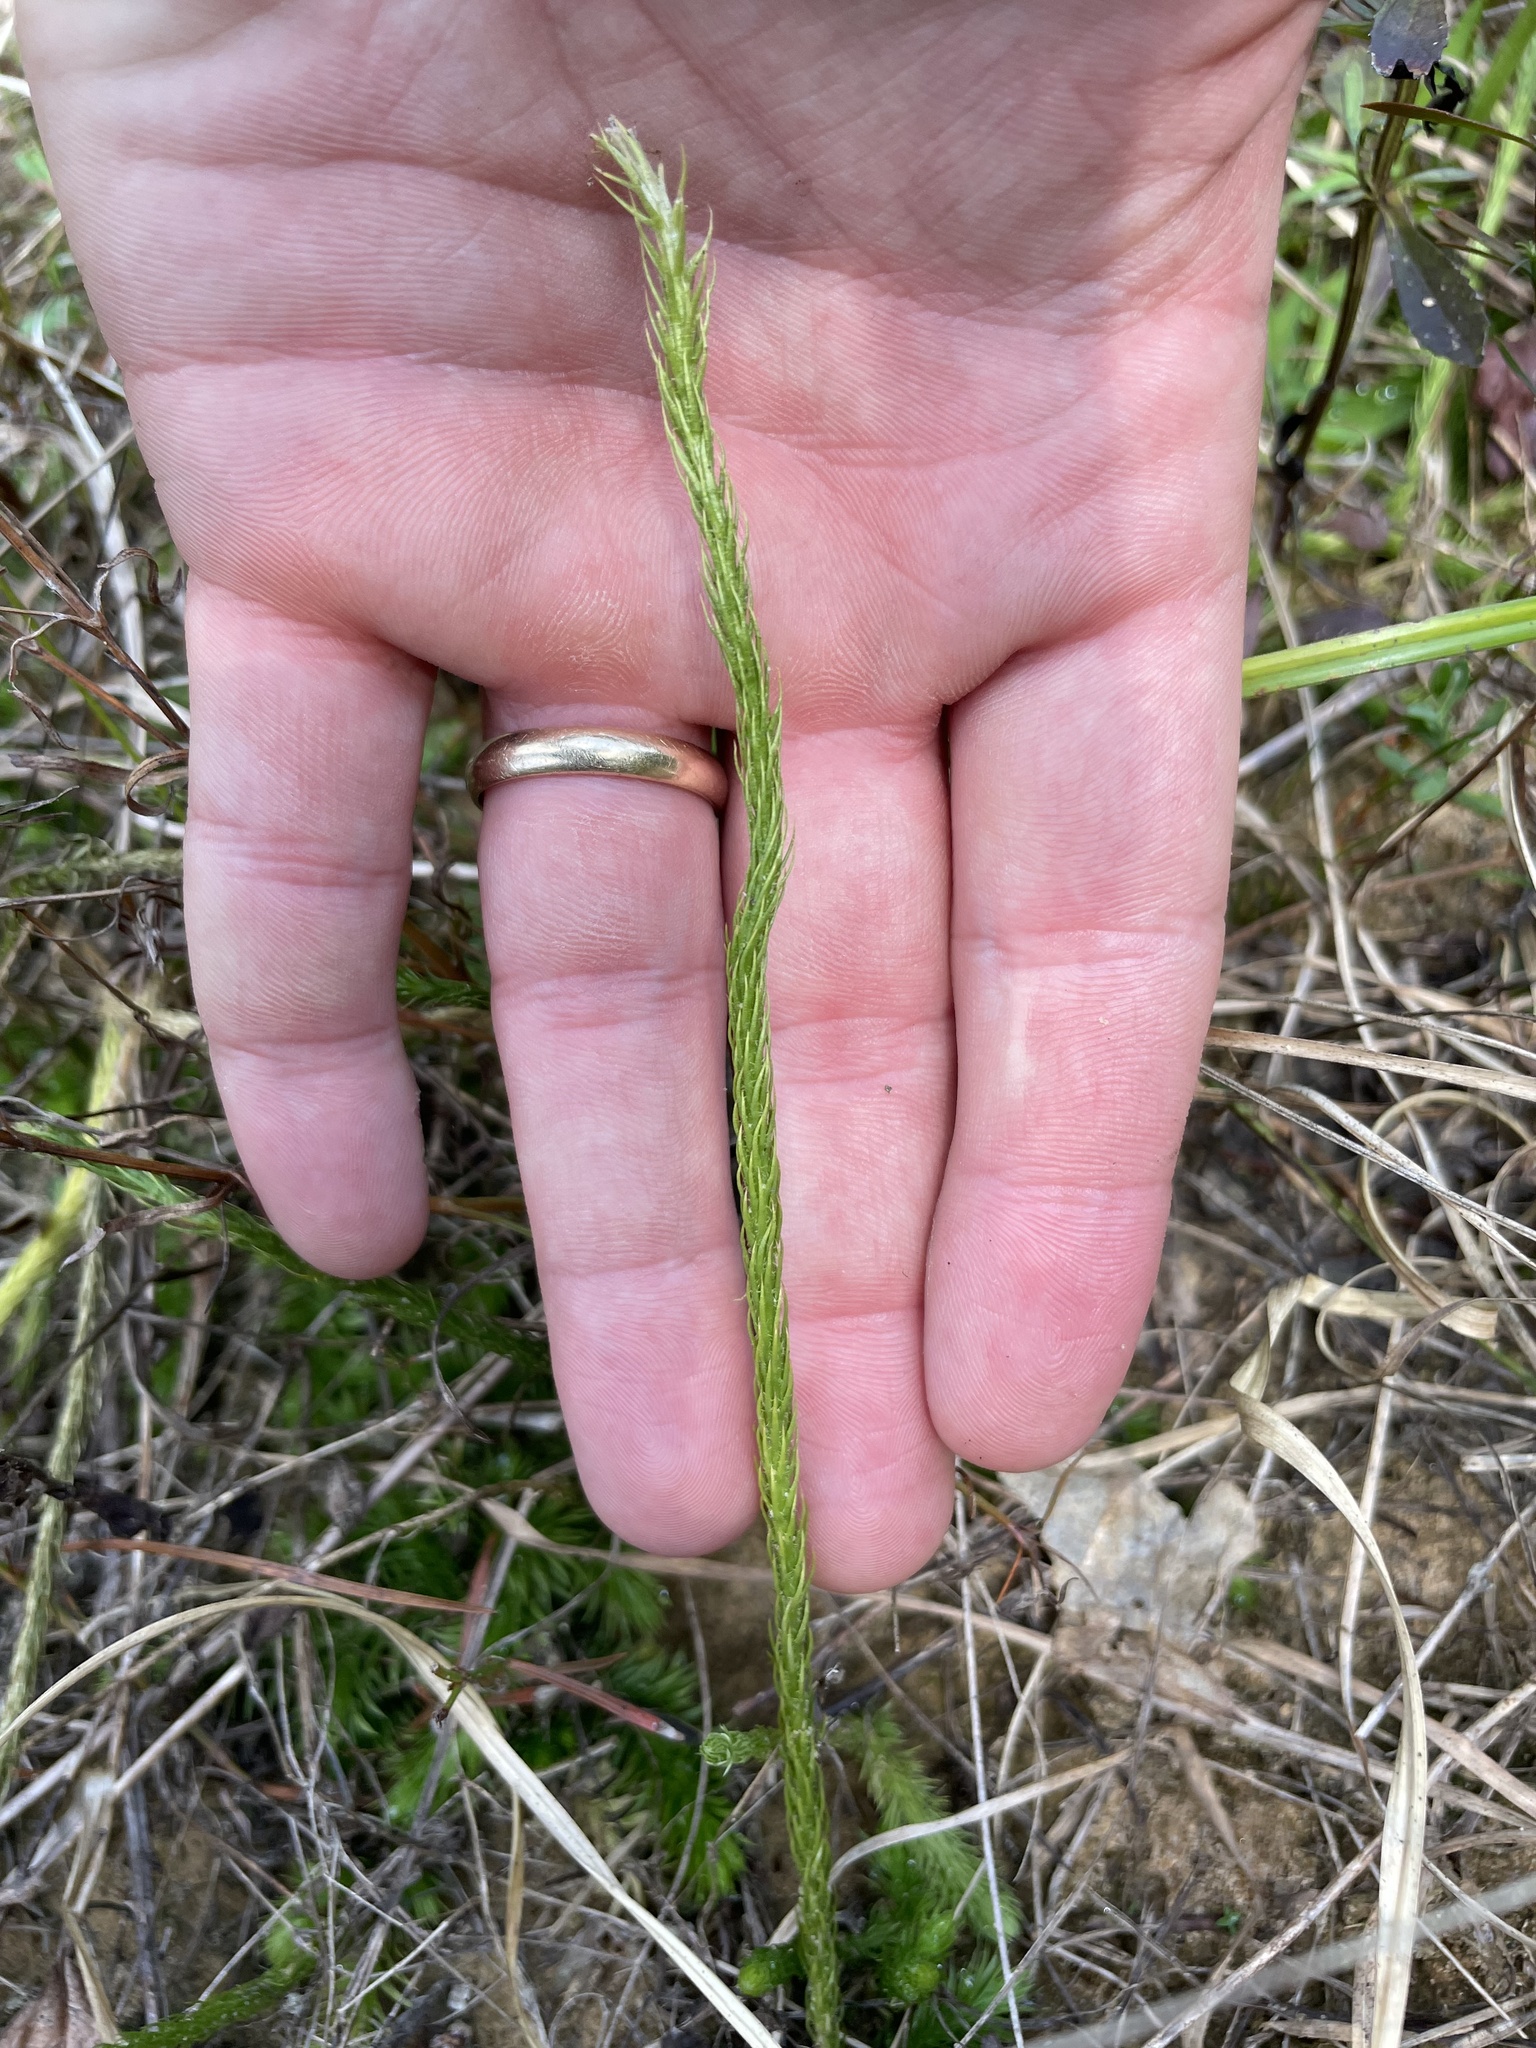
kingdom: Plantae
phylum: Tracheophyta
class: Lycopodiopsida
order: Lycopodiales
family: Lycopodiaceae
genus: Lycopodiella
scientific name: Lycopodiella appressa
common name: Appressed bog clubmoss
